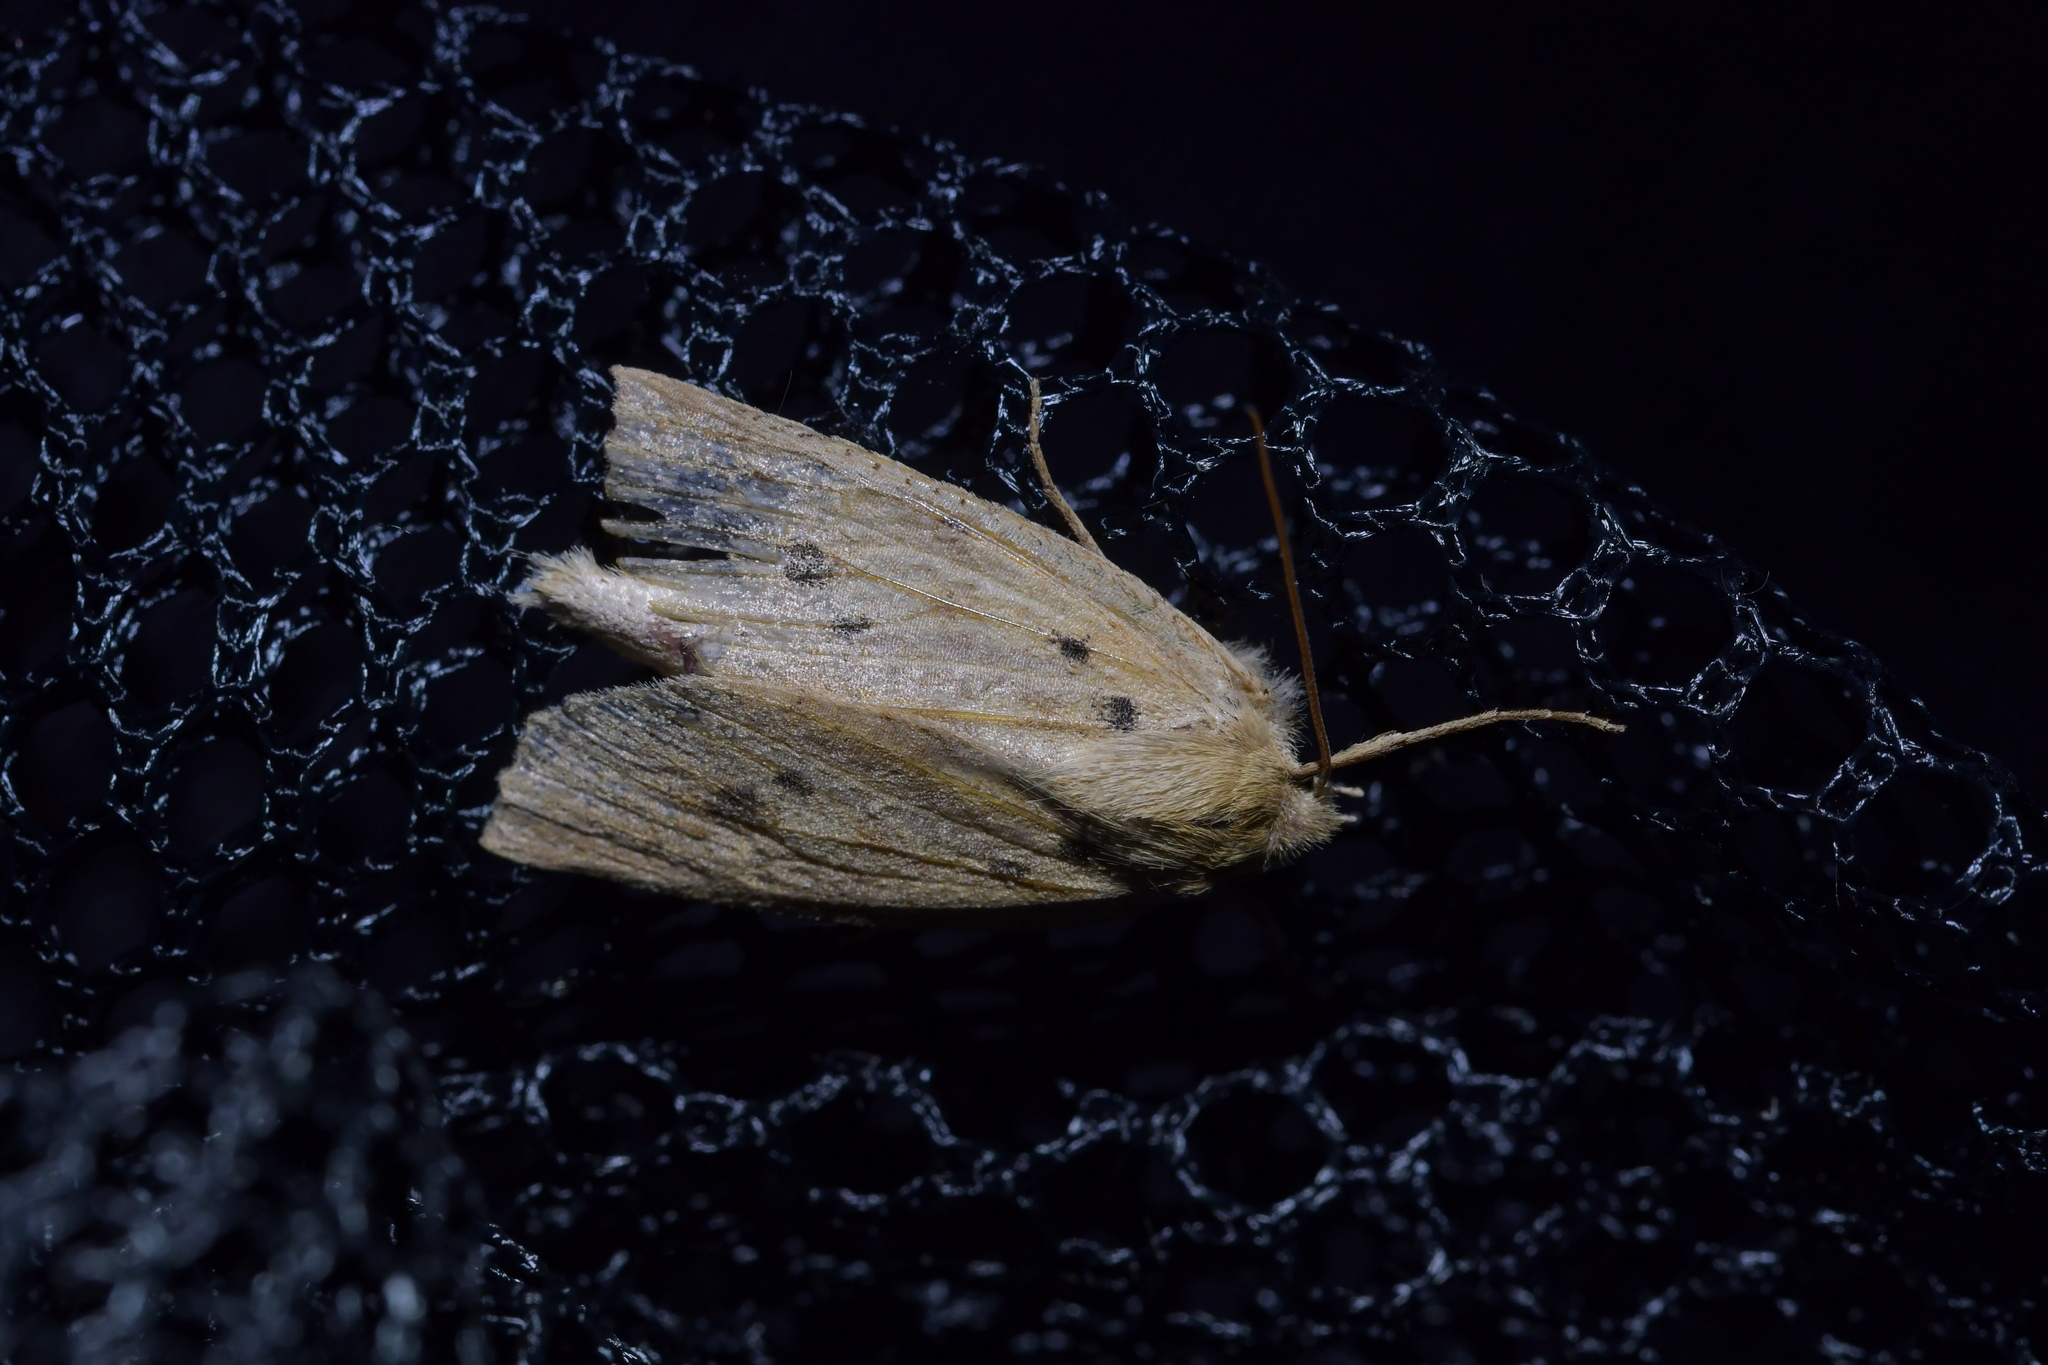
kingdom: Animalia
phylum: Arthropoda
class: Insecta
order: Lepidoptera
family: Geometridae
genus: Declana
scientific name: Declana leptomera
